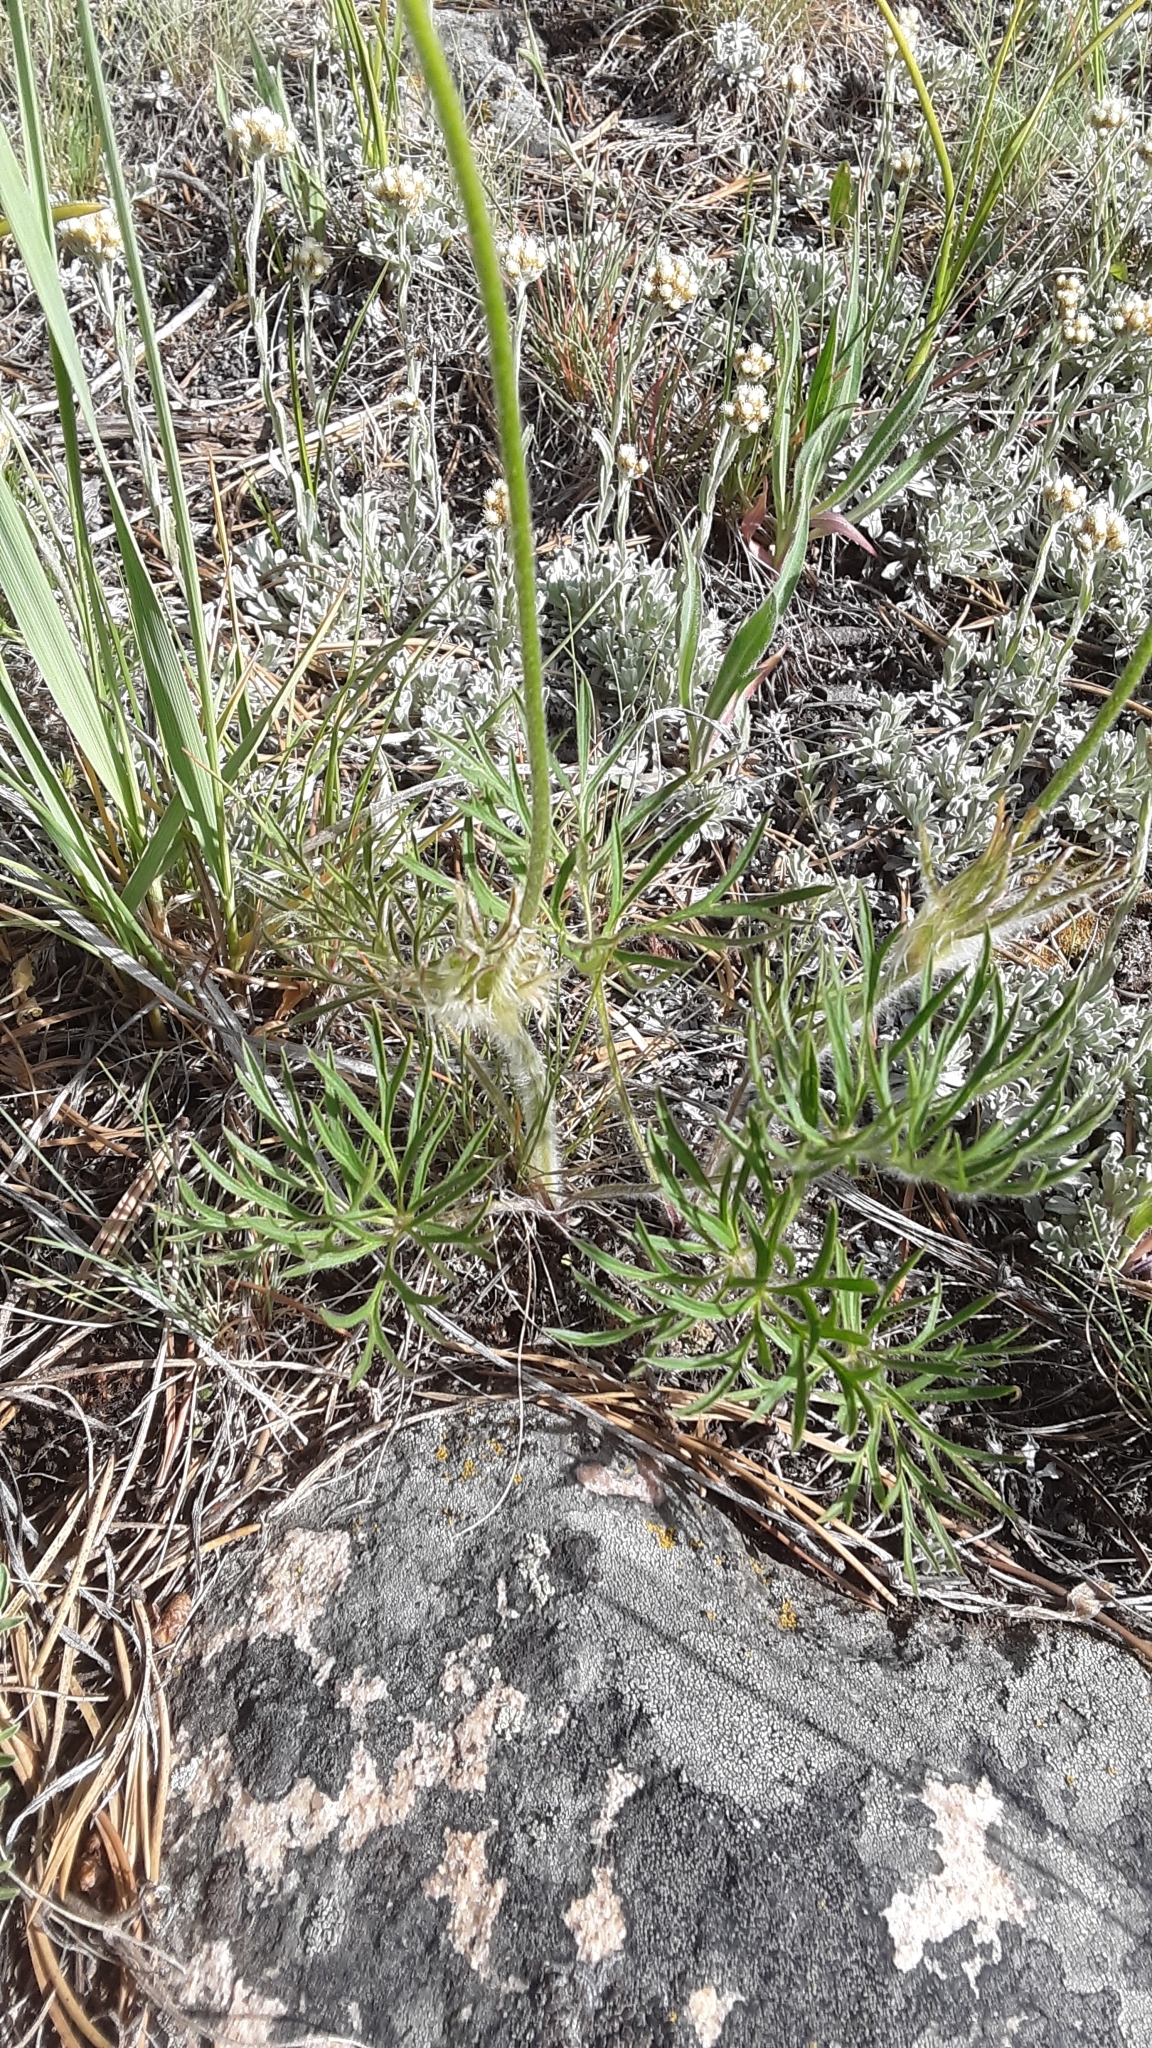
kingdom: Plantae
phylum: Tracheophyta
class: Magnoliopsida
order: Ranunculales
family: Ranunculaceae
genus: Pulsatilla
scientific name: Pulsatilla nuttalliana
